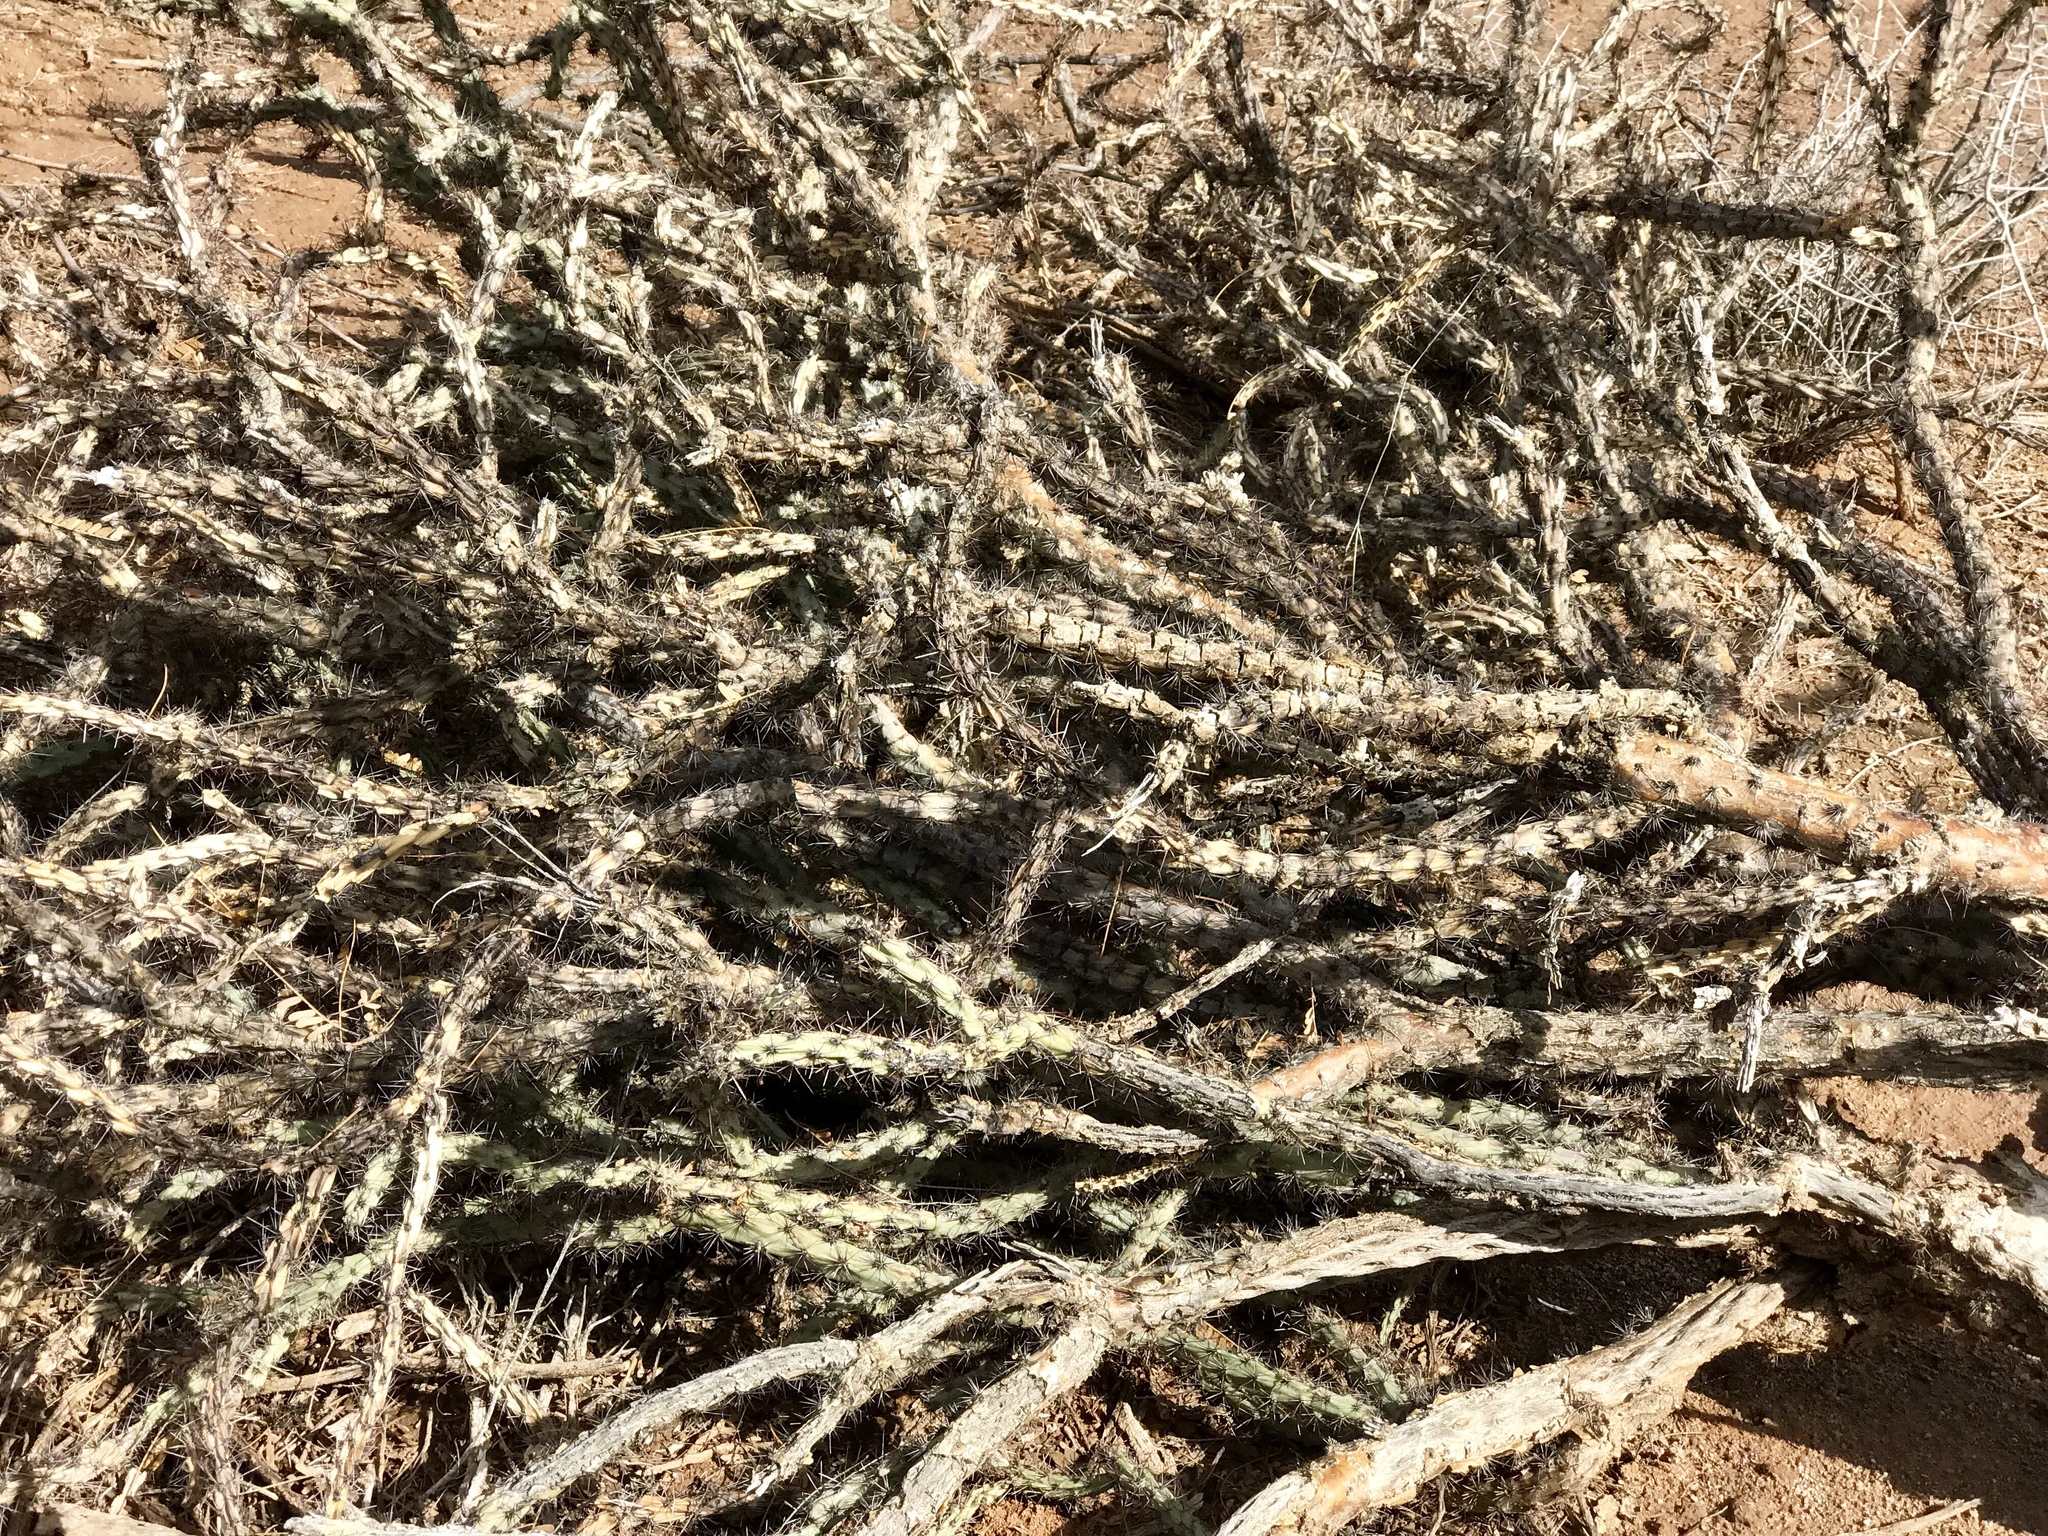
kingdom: Plantae
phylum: Tracheophyta
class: Magnoliopsida
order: Caryophyllales
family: Cactaceae
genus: Cylindropuntia
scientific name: Cylindropuntia acanthocarpa
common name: Buckhorn cholla
